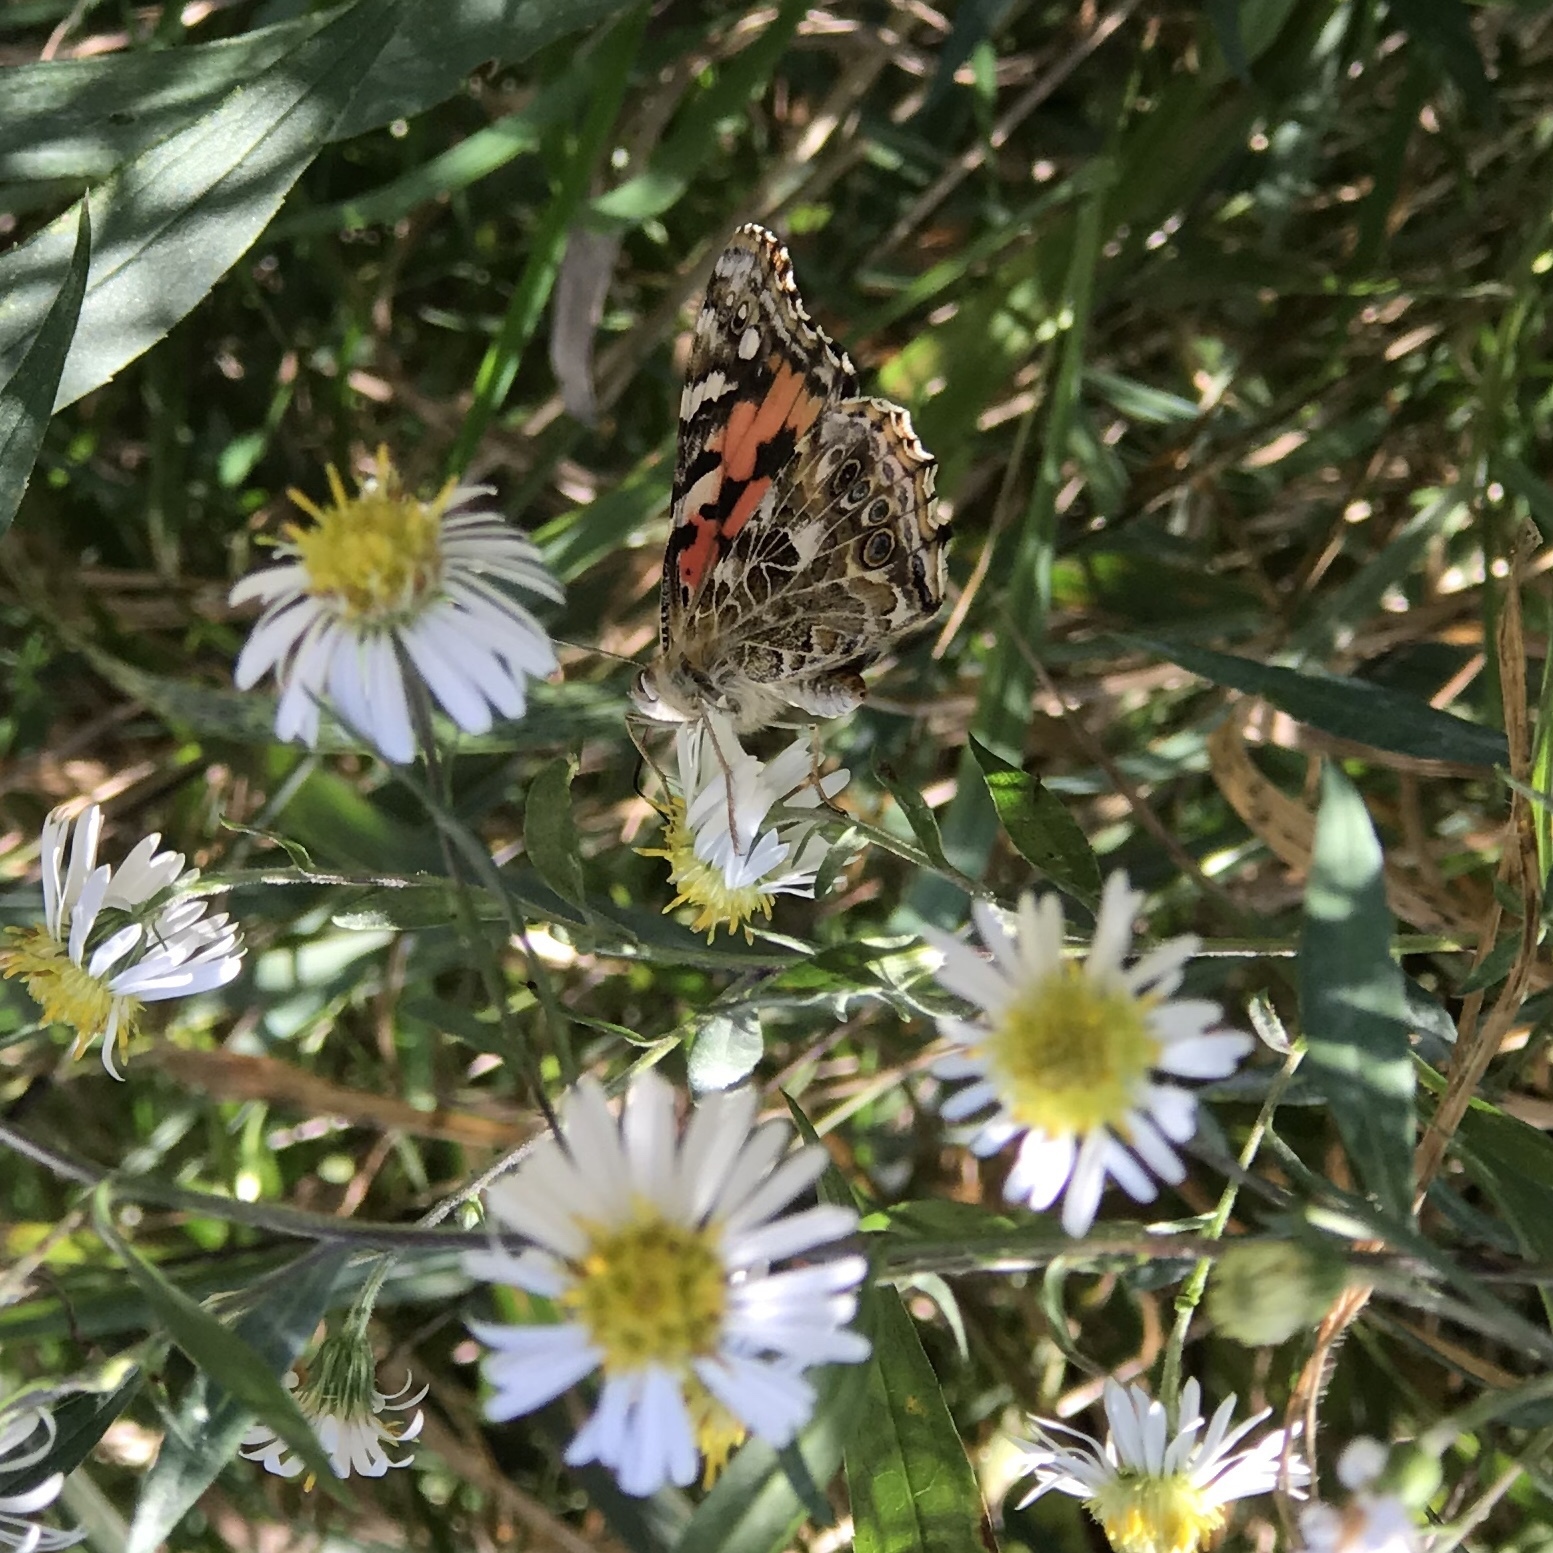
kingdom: Animalia
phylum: Arthropoda
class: Insecta
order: Lepidoptera
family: Nymphalidae
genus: Vanessa
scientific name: Vanessa cardui
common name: Painted lady
